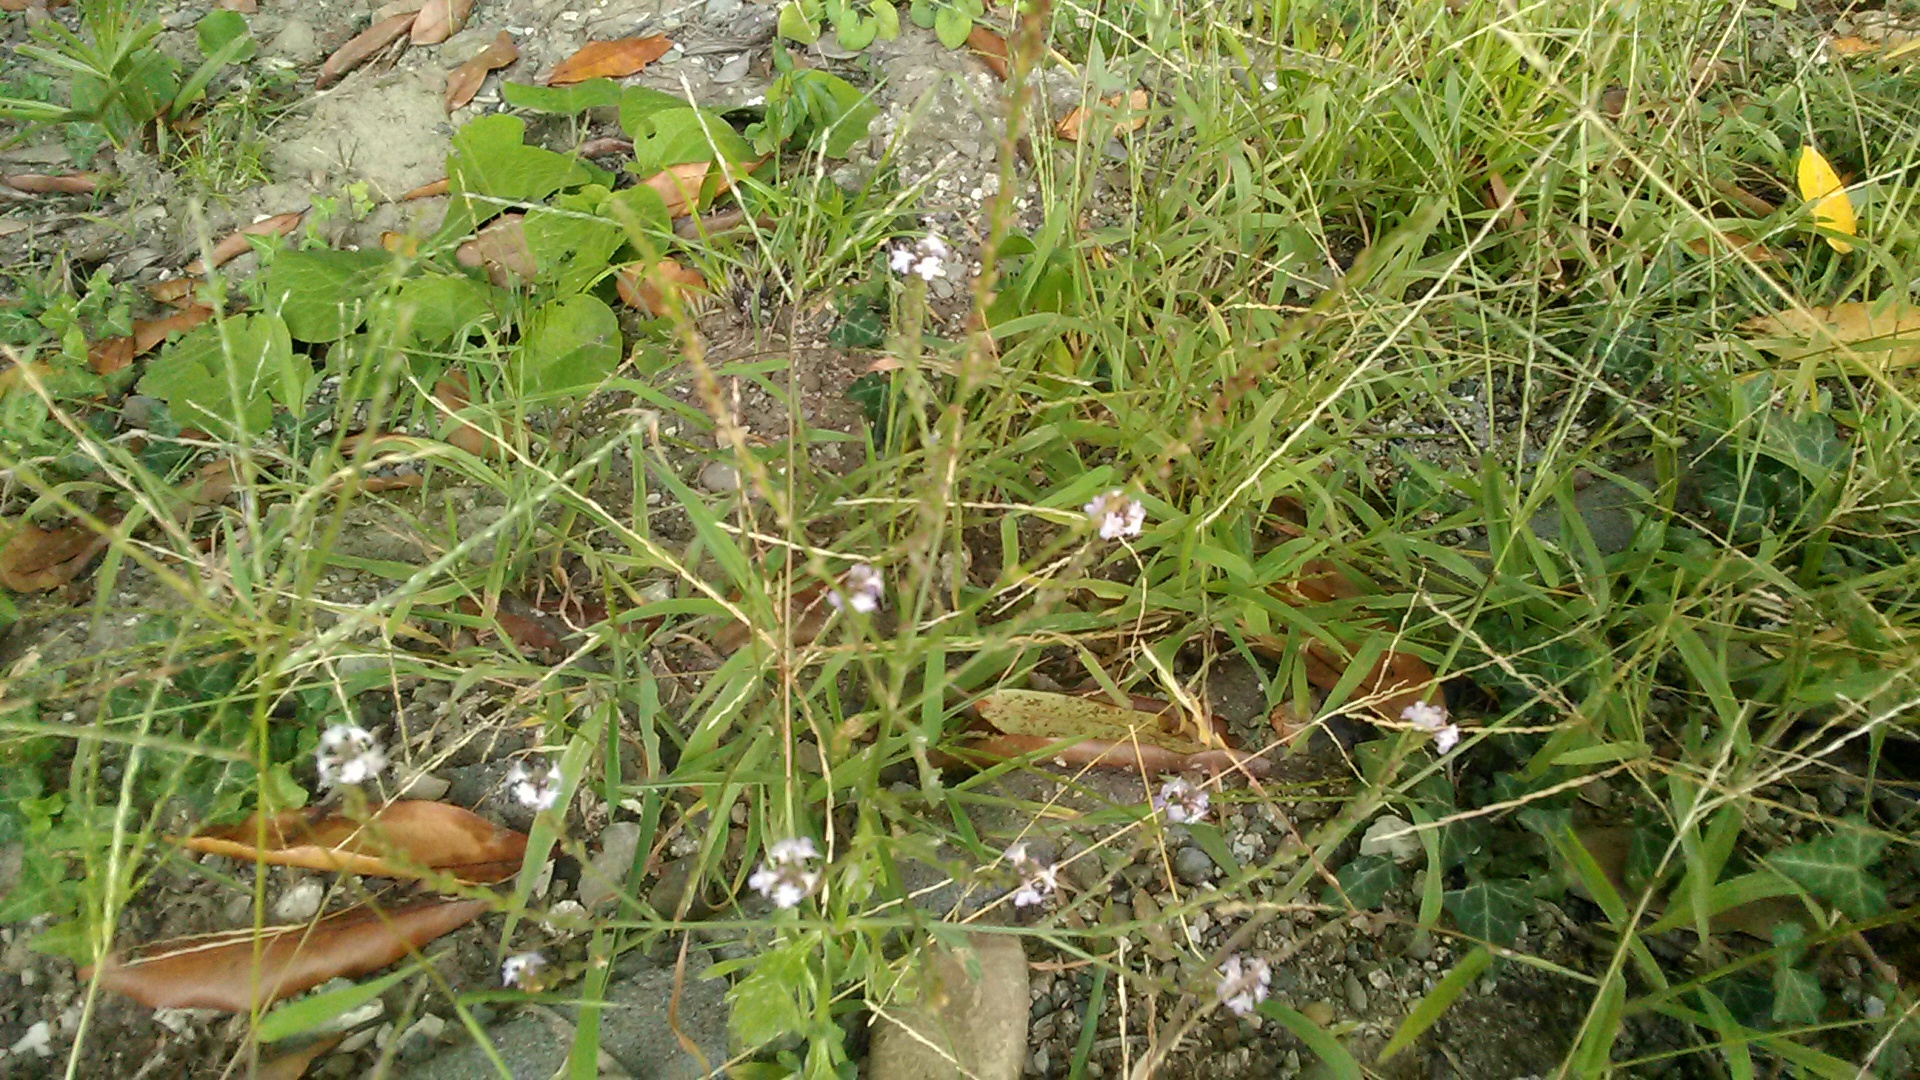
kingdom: Plantae
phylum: Tracheophyta
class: Magnoliopsida
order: Lamiales
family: Verbenaceae
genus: Verbena
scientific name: Verbena officinalis
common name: Vervain
